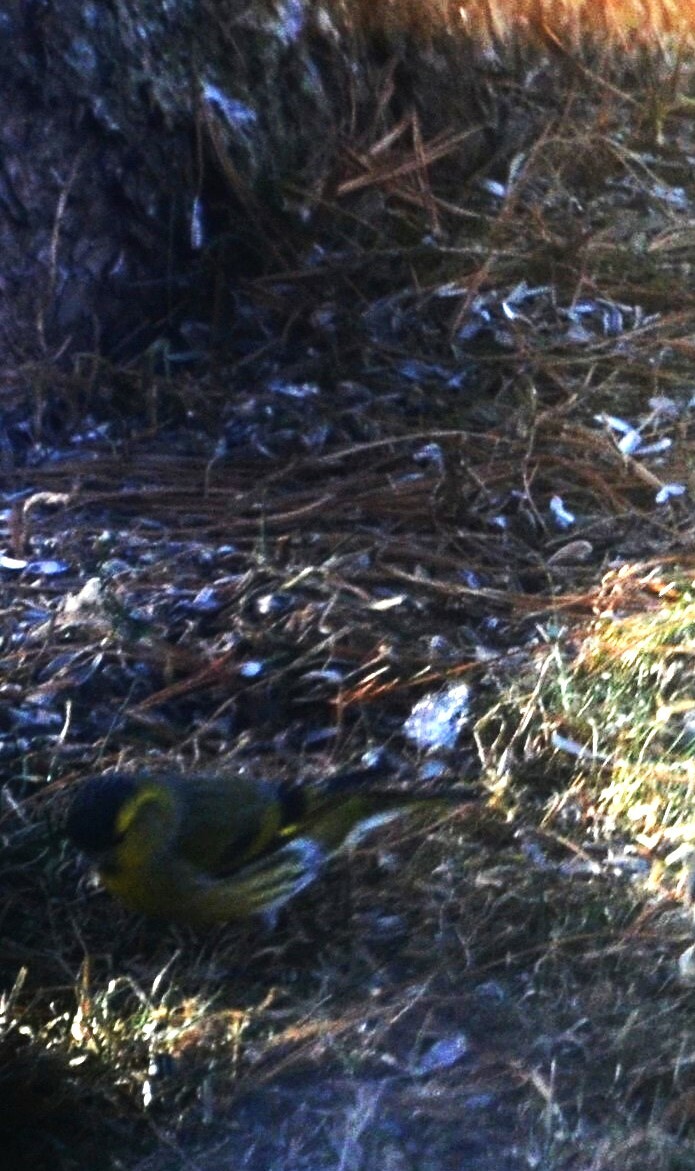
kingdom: Animalia
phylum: Chordata
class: Aves
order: Passeriformes
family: Fringillidae
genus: Spinus
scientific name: Spinus spinus
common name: Eurasian siskin
